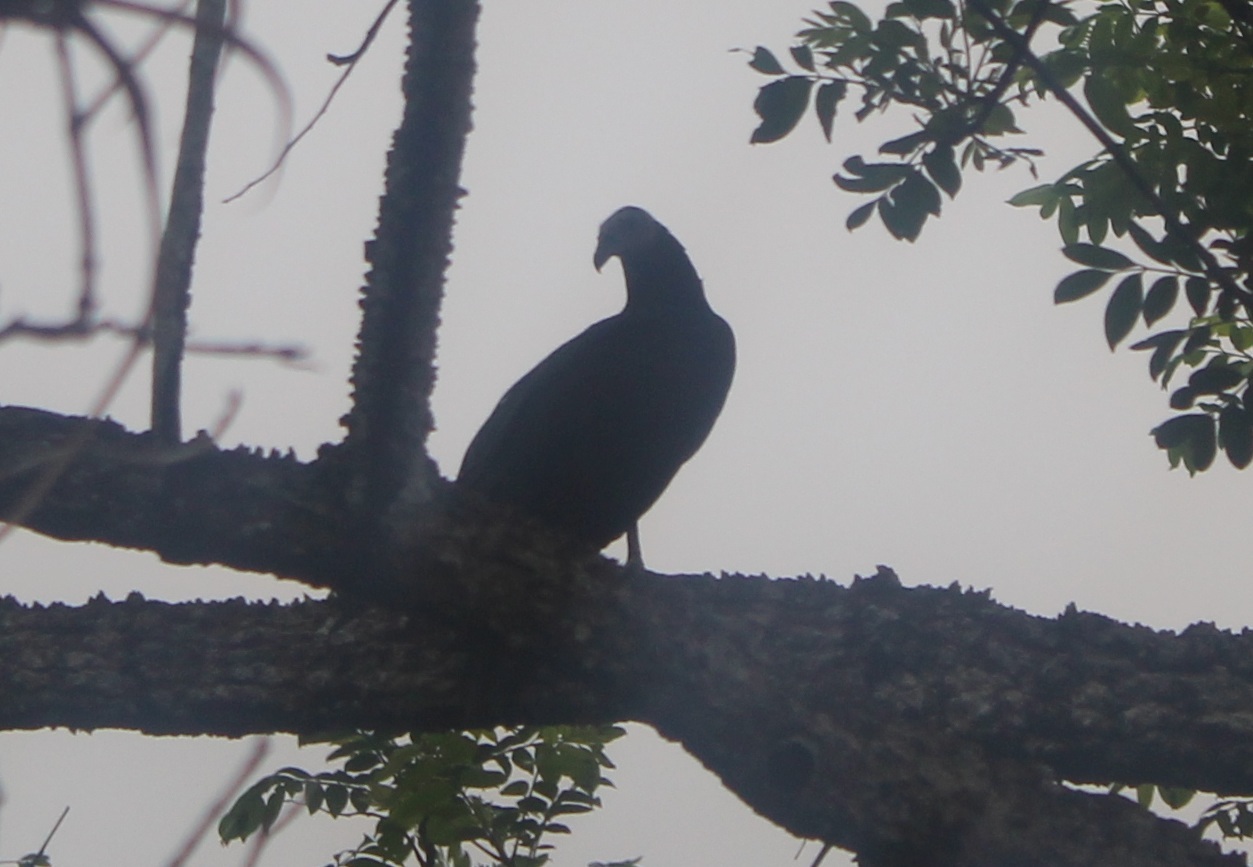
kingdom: Animalia
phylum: Chordata
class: Aves
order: Accipitriformes
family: Cathartidae
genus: Cathartes
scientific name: Cathartes burrovianus
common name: Lesser yellow-headed vulture
